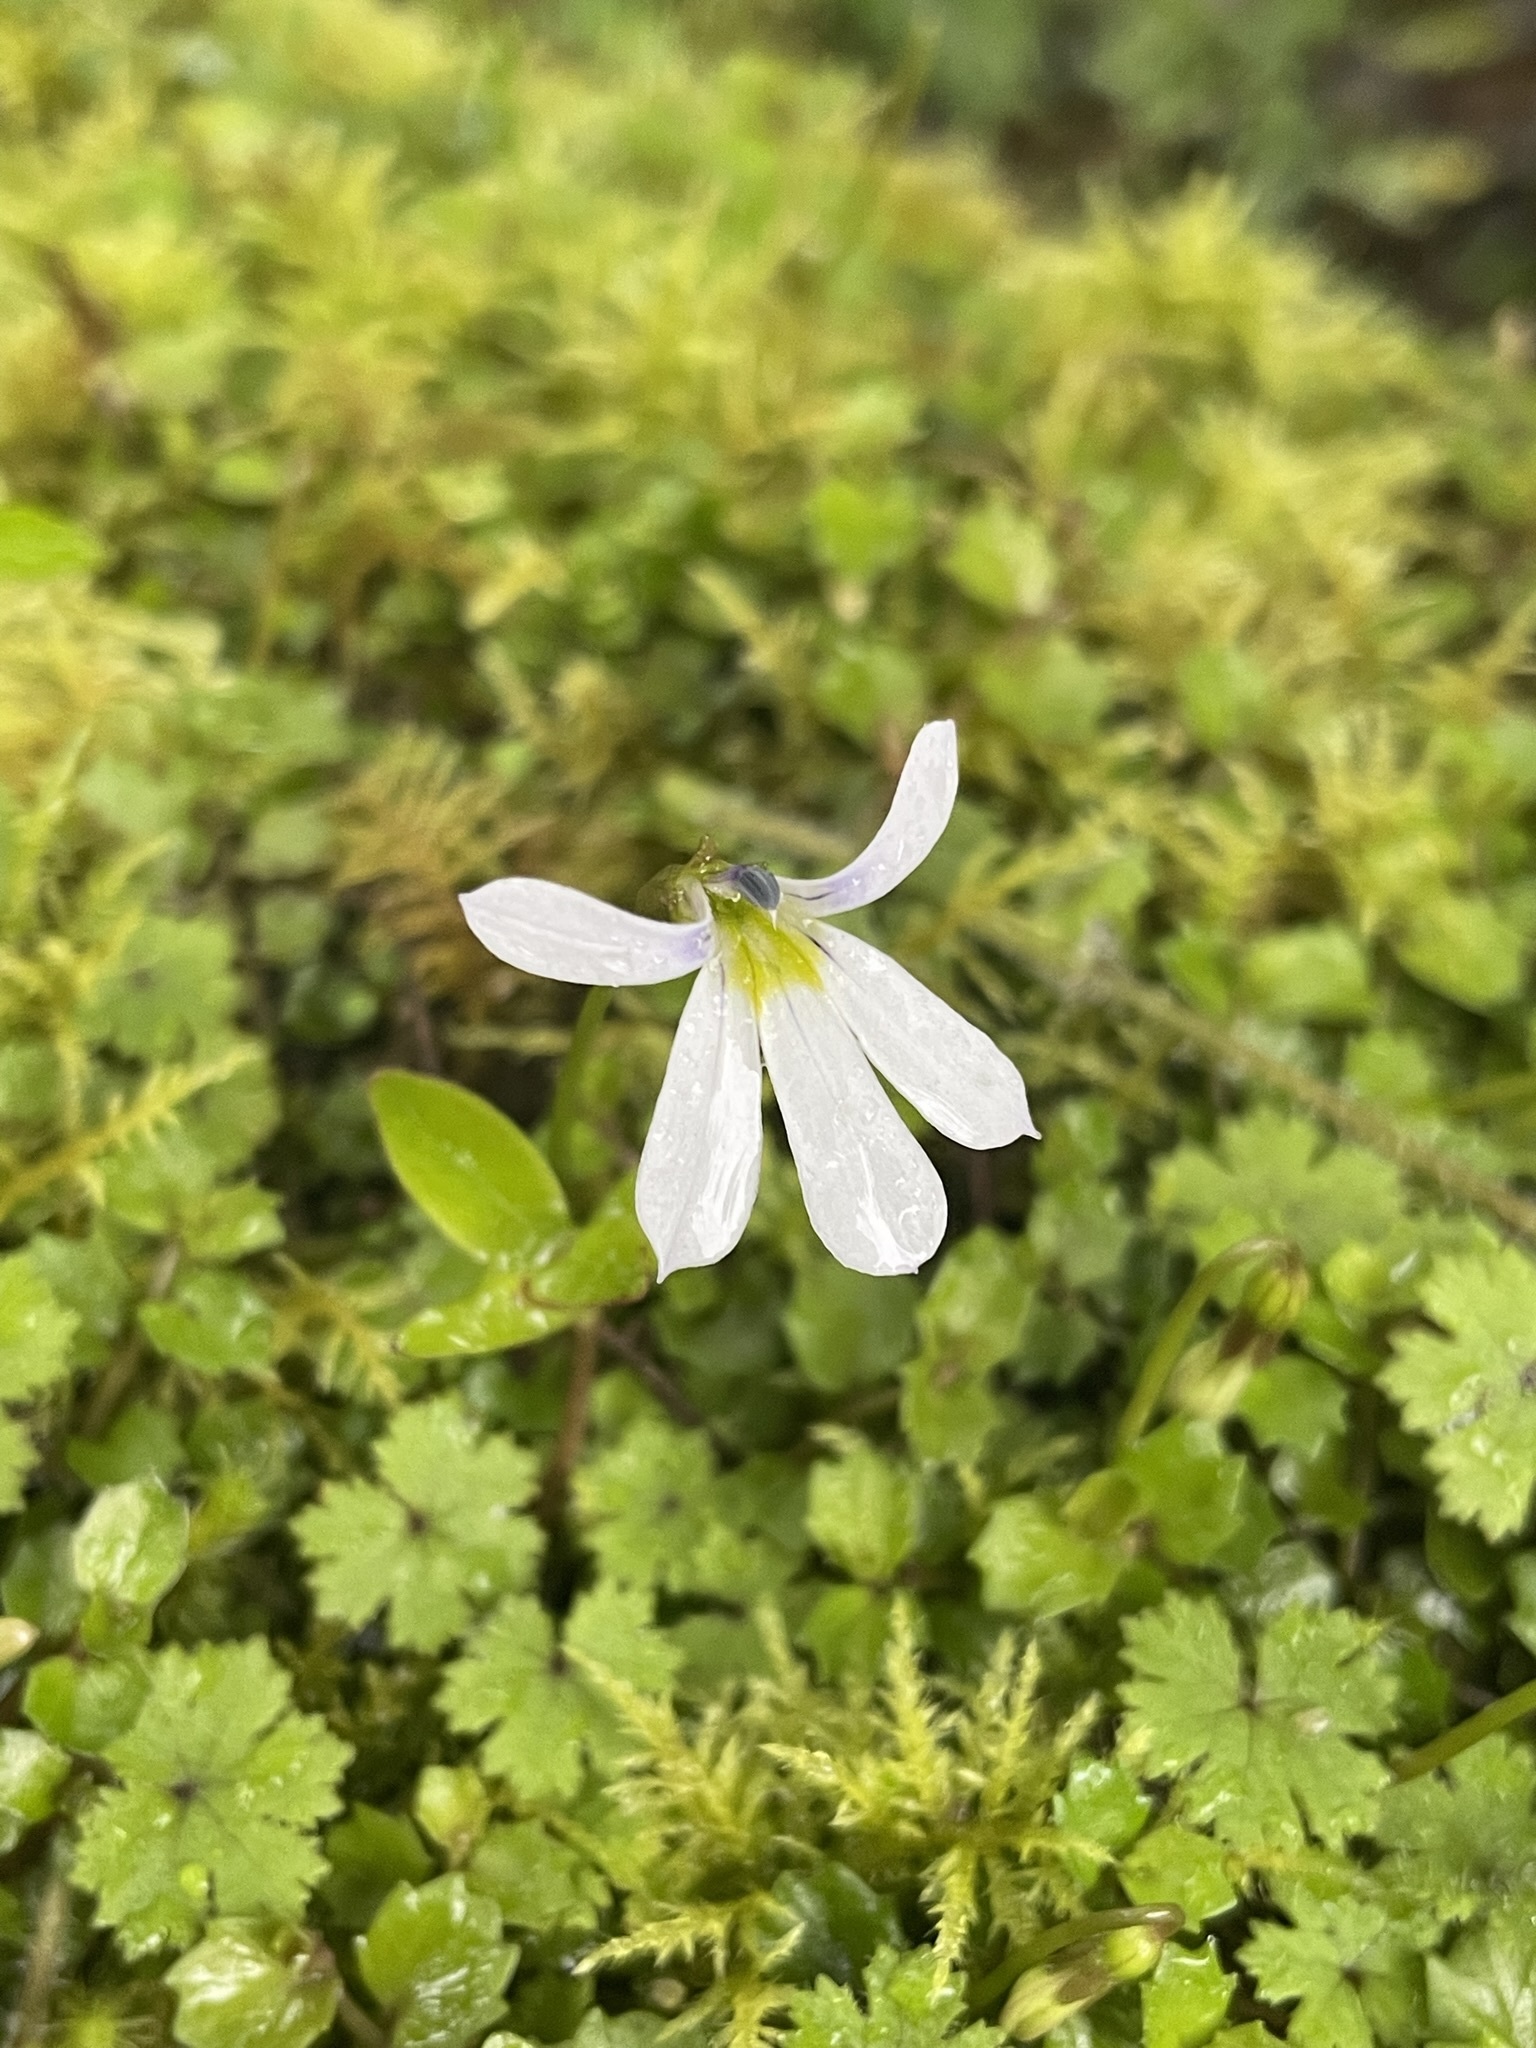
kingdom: Plantae
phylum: Tracheophyta
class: Magnoliopsida
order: Asterales
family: Campanulaceae
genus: Lobelia
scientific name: Lobelia angulata
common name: Lawn lobelia
